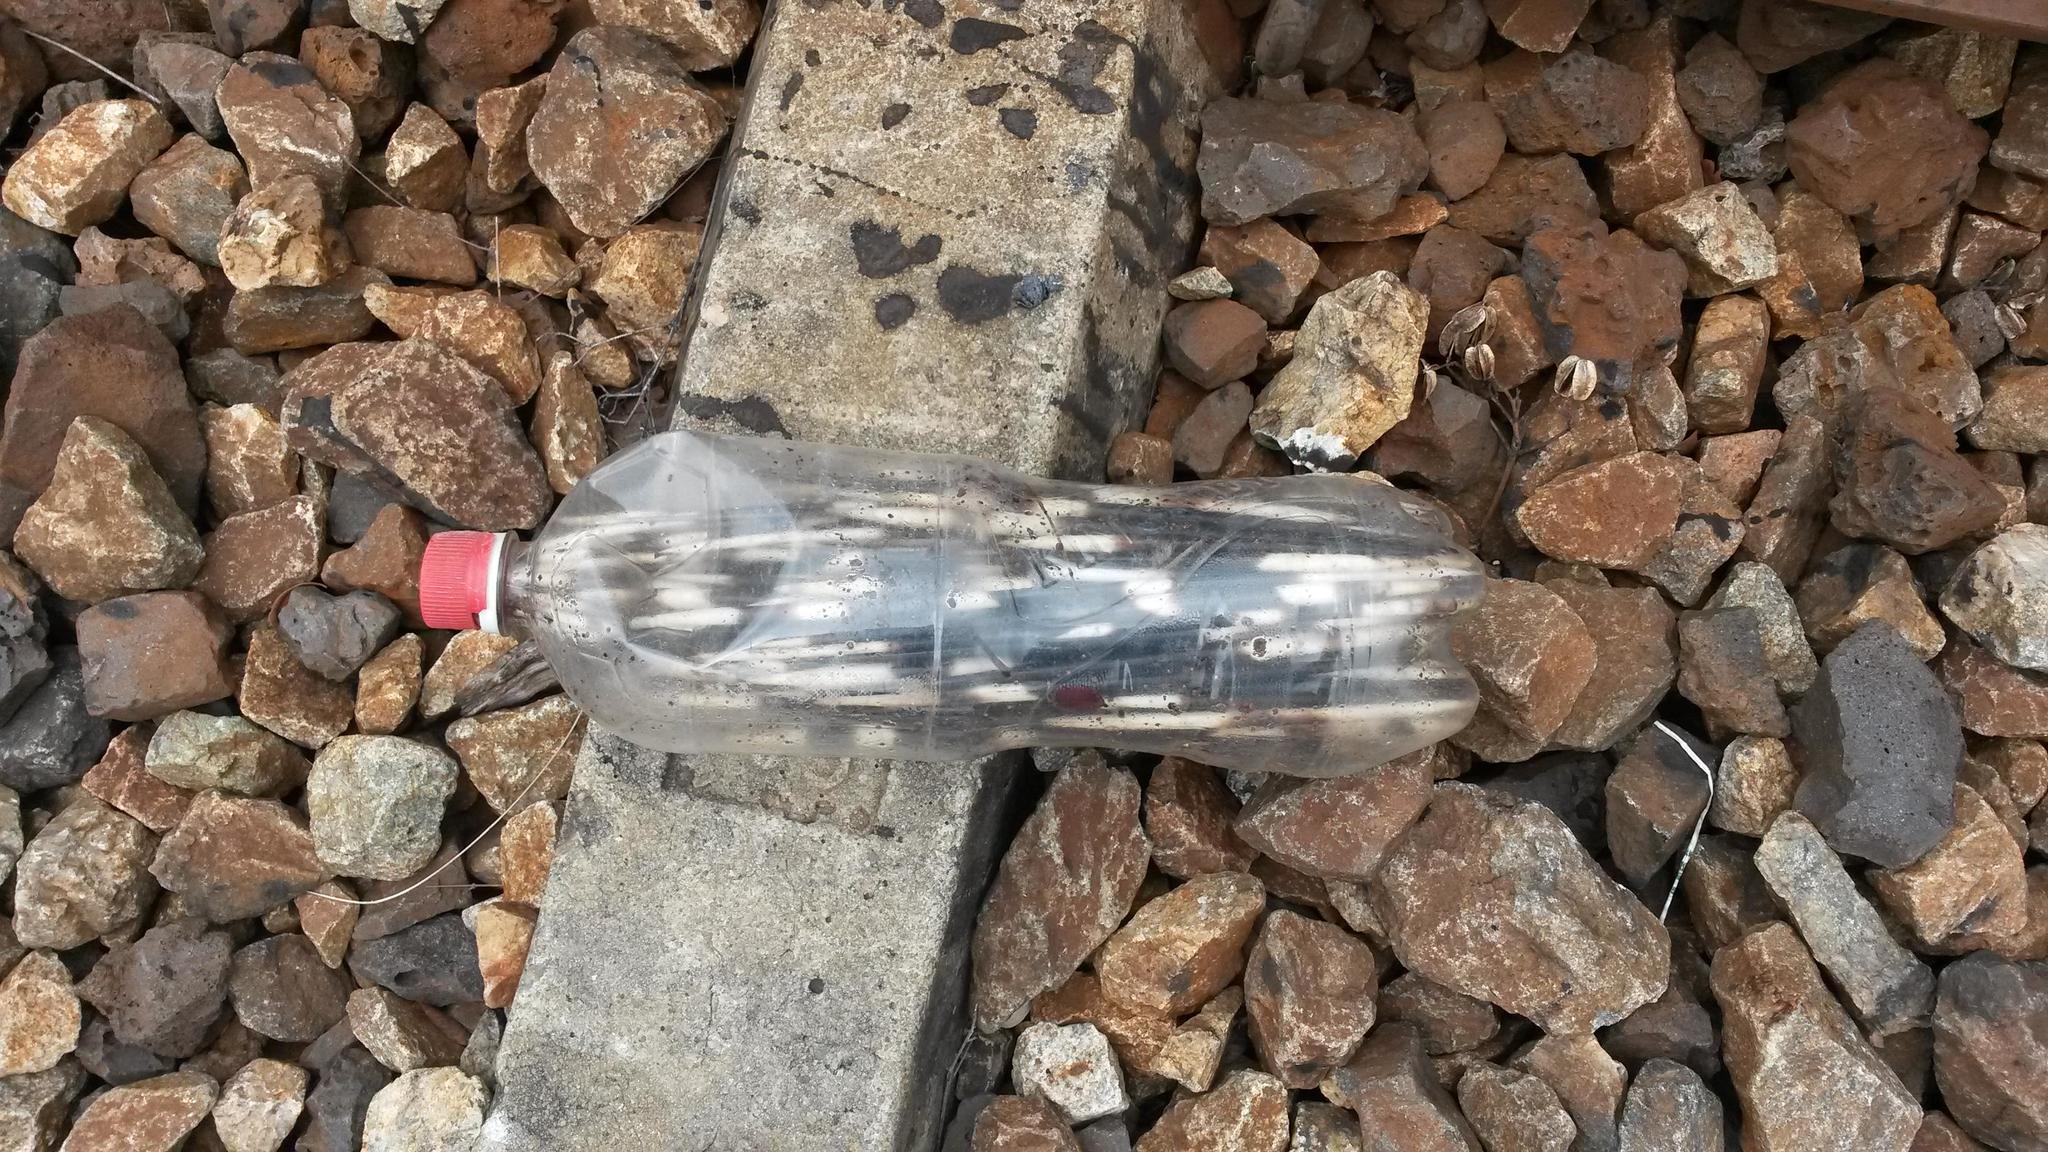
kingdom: Animalia
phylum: Chordata
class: Mammalia
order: Rodentia
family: Hystricidae
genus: Hystrix
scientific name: Hystrix africaeaustralis
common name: Cape porcupine
